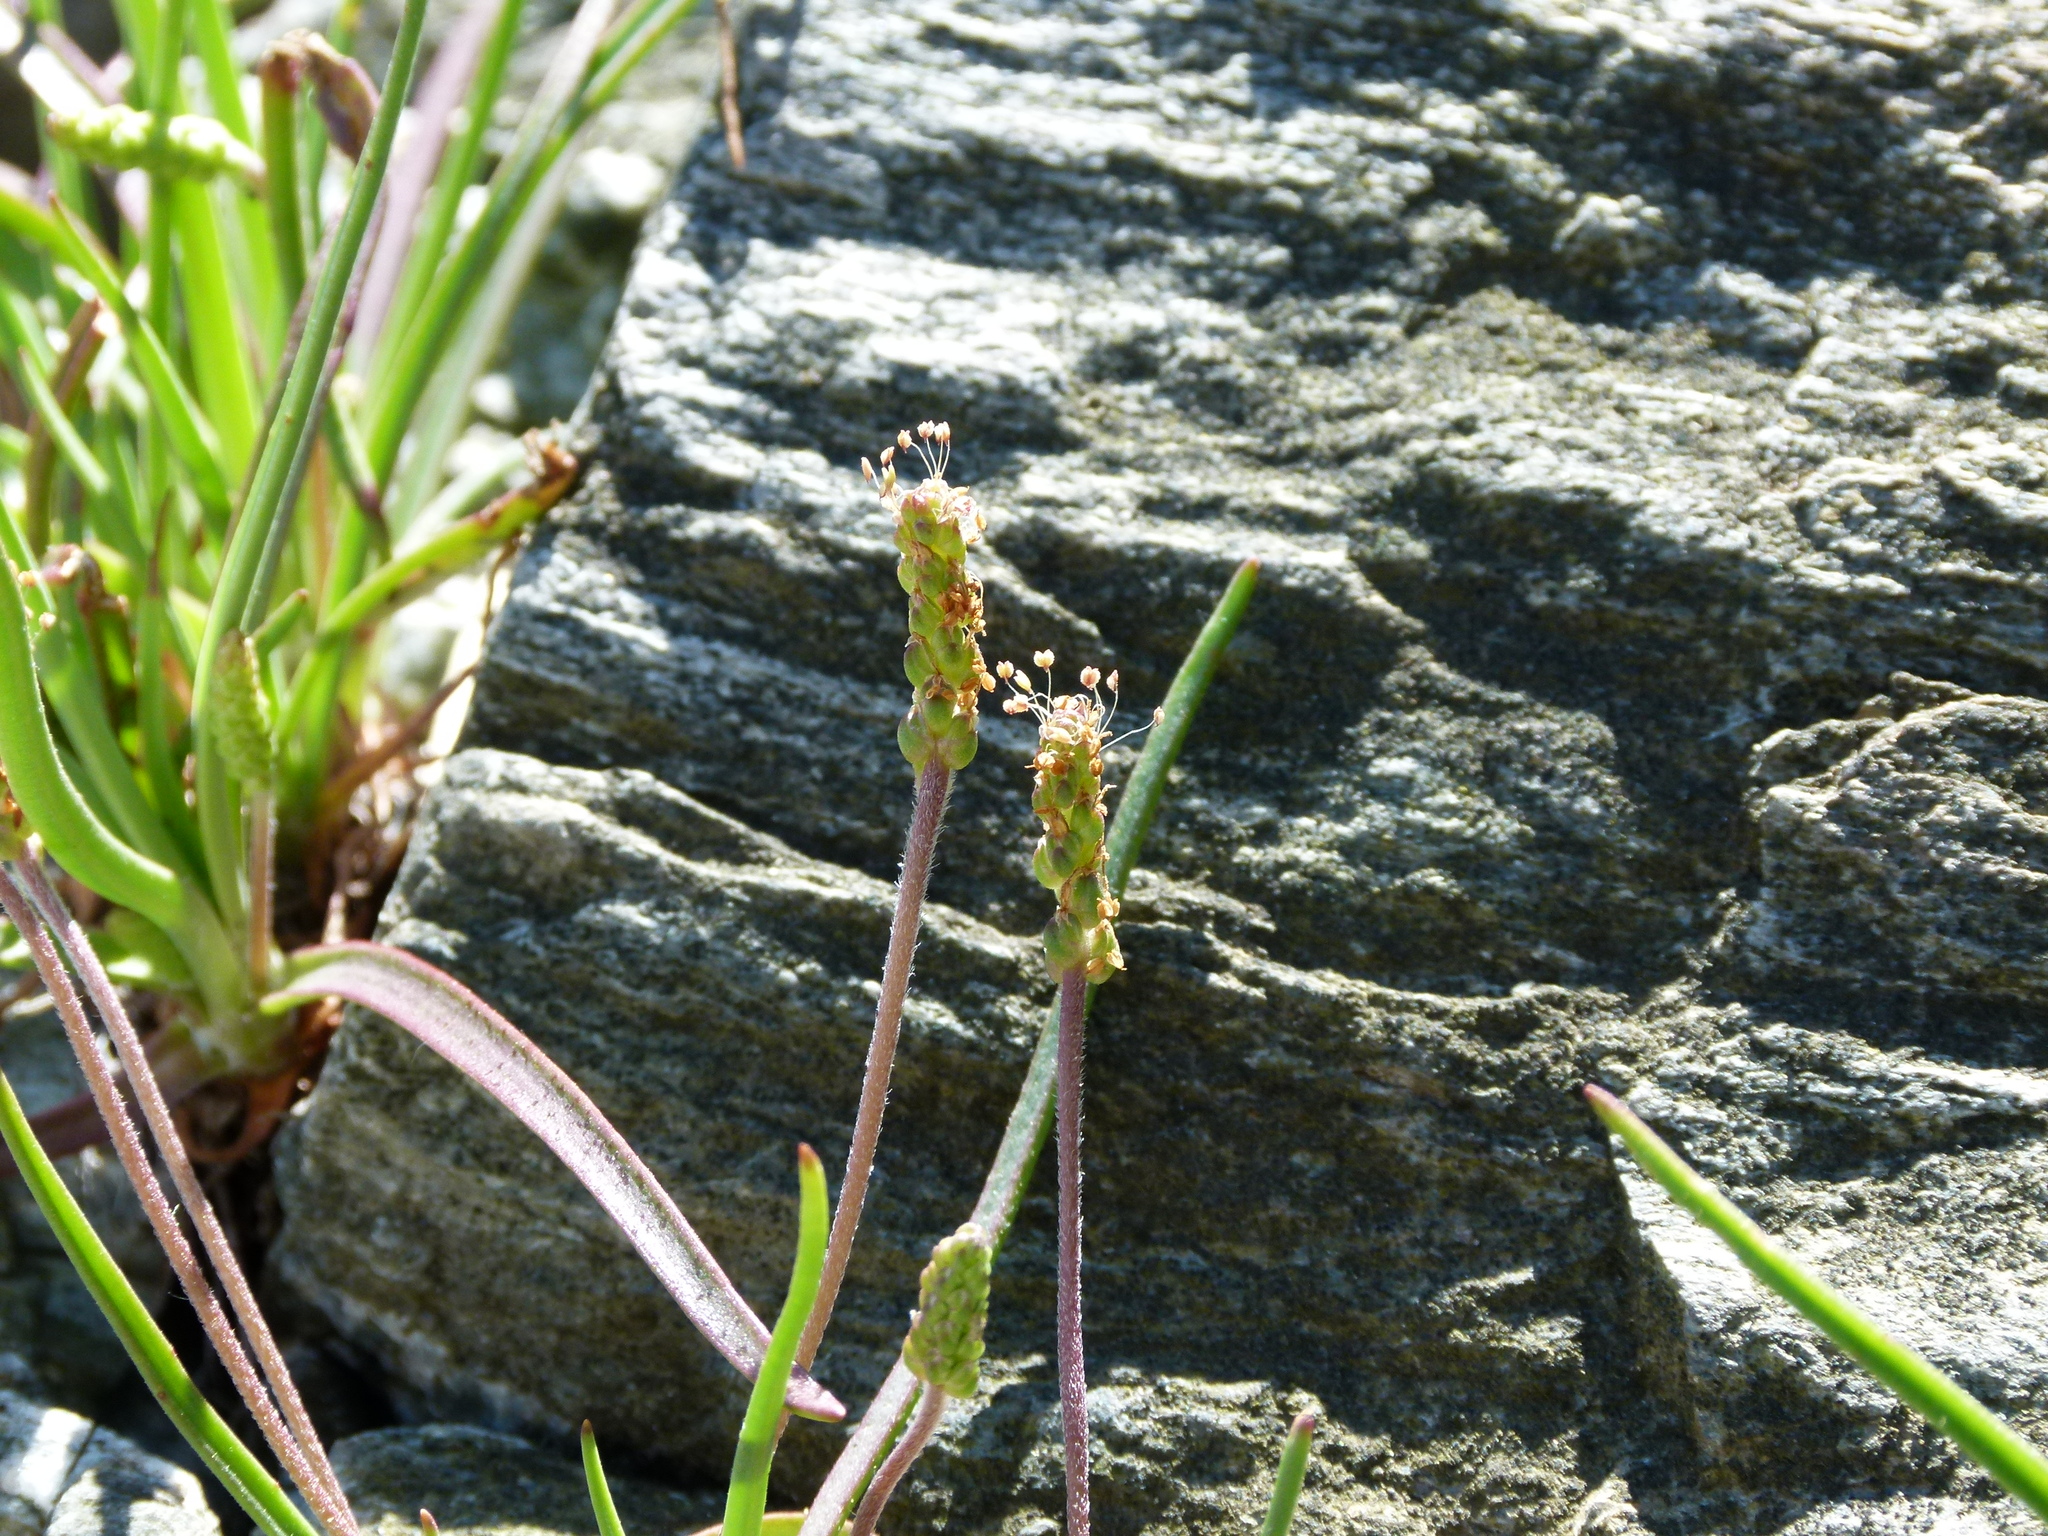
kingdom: Plantae
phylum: Tracheophyta
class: Magnoliopsida
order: Lamiales
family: Plantaginaceae
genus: Plantago
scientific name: Plantago maritima
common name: Sea plantain
